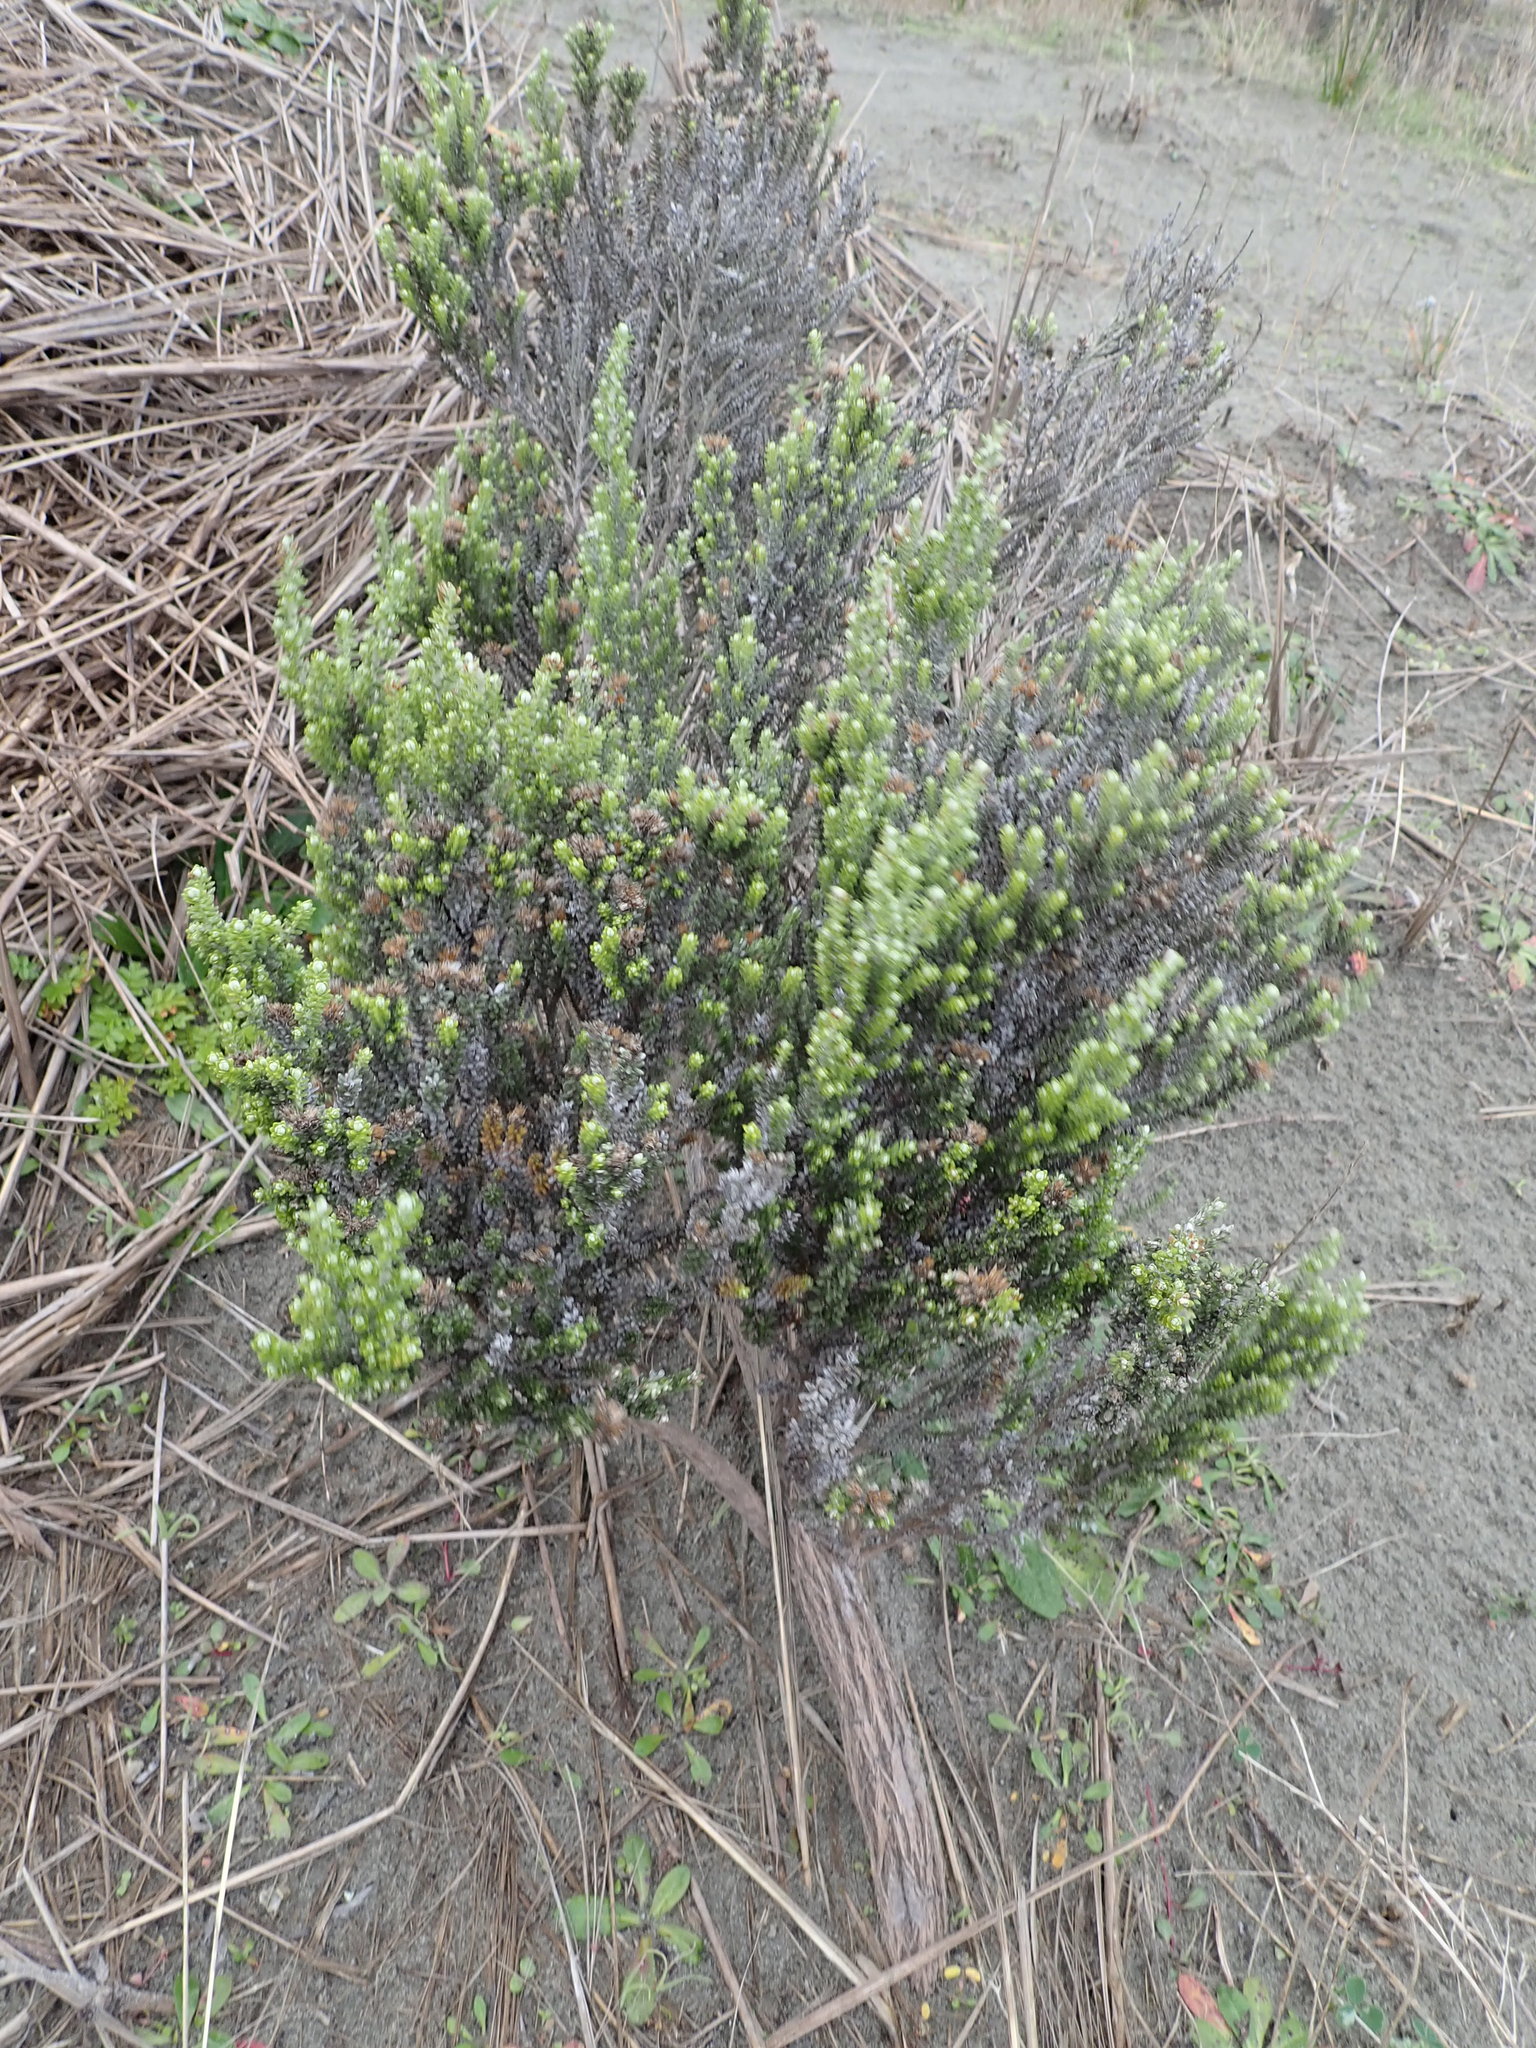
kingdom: Plantae
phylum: Tracheophyta
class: Magnoliopsida
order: Asterales
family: Asteraceae
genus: Ozothamnus
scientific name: Ozothamnus leptophyllus
